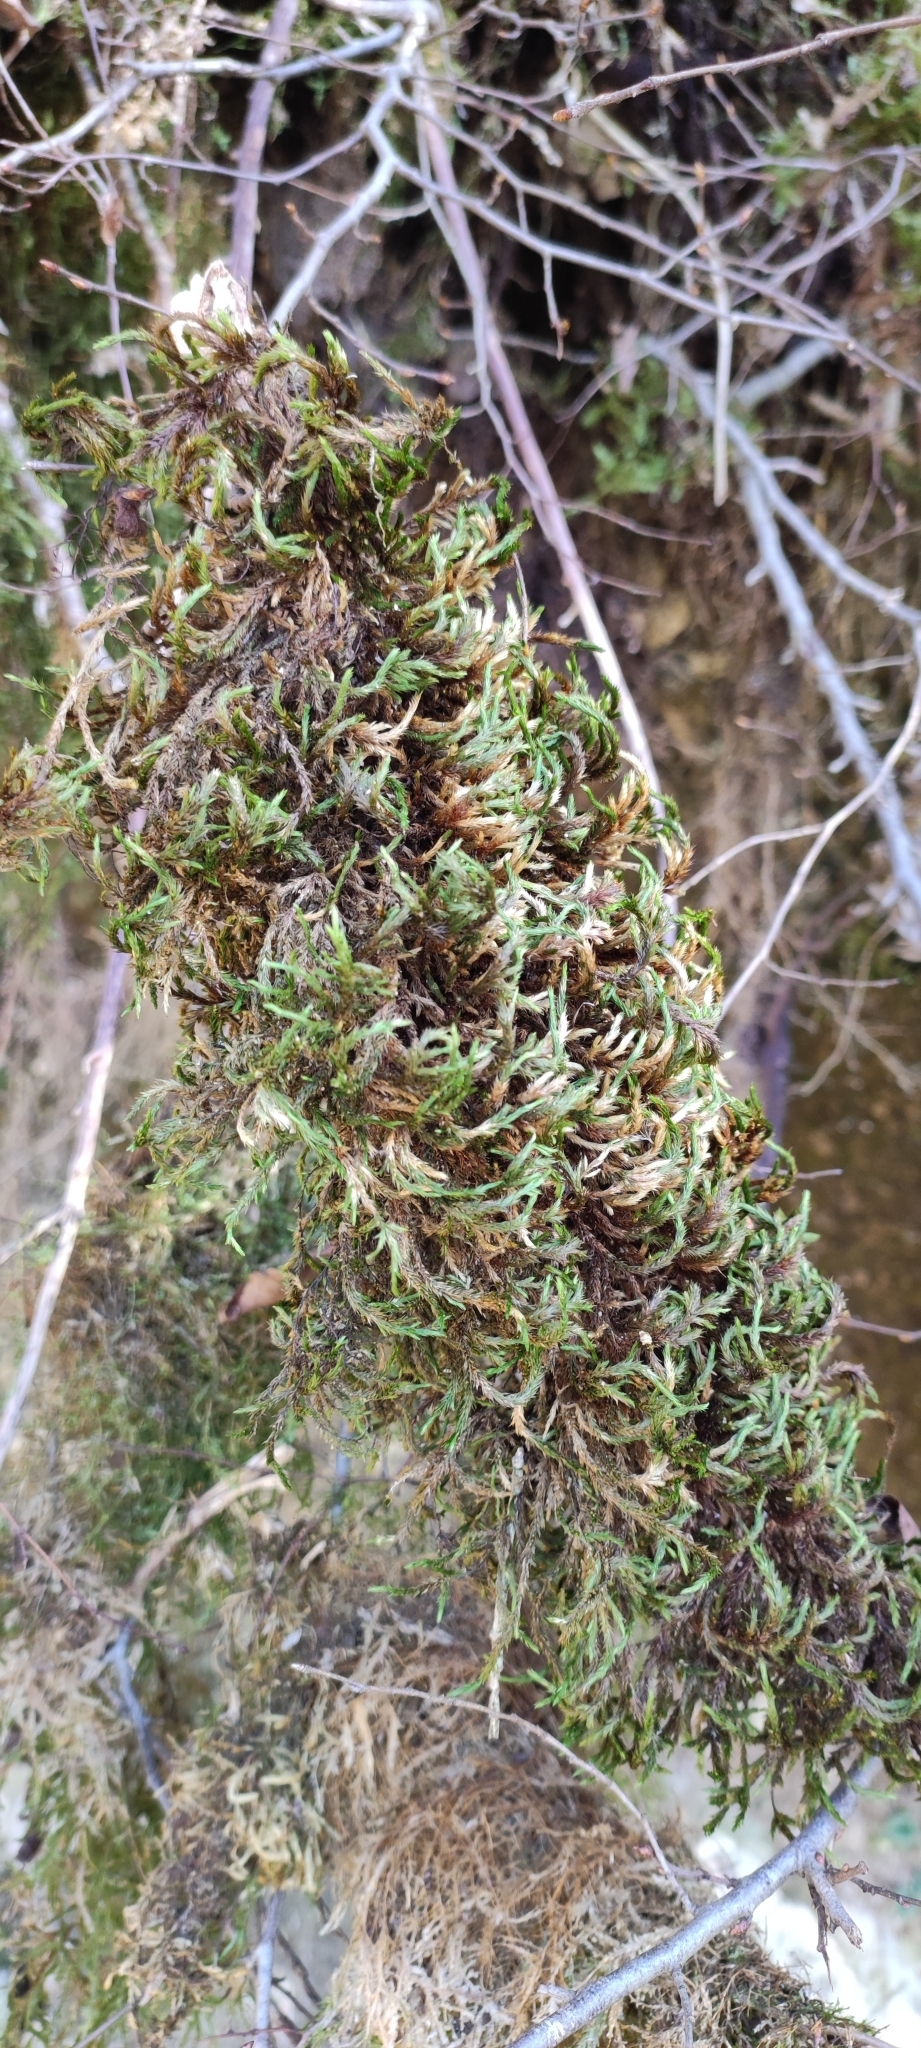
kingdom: Plantae
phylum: Bryophyta
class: Bryopsida
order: Hypnales
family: Leucodontaceae
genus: Leucodon
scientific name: Leucodon sciuroides
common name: Squirrel-tail moss
